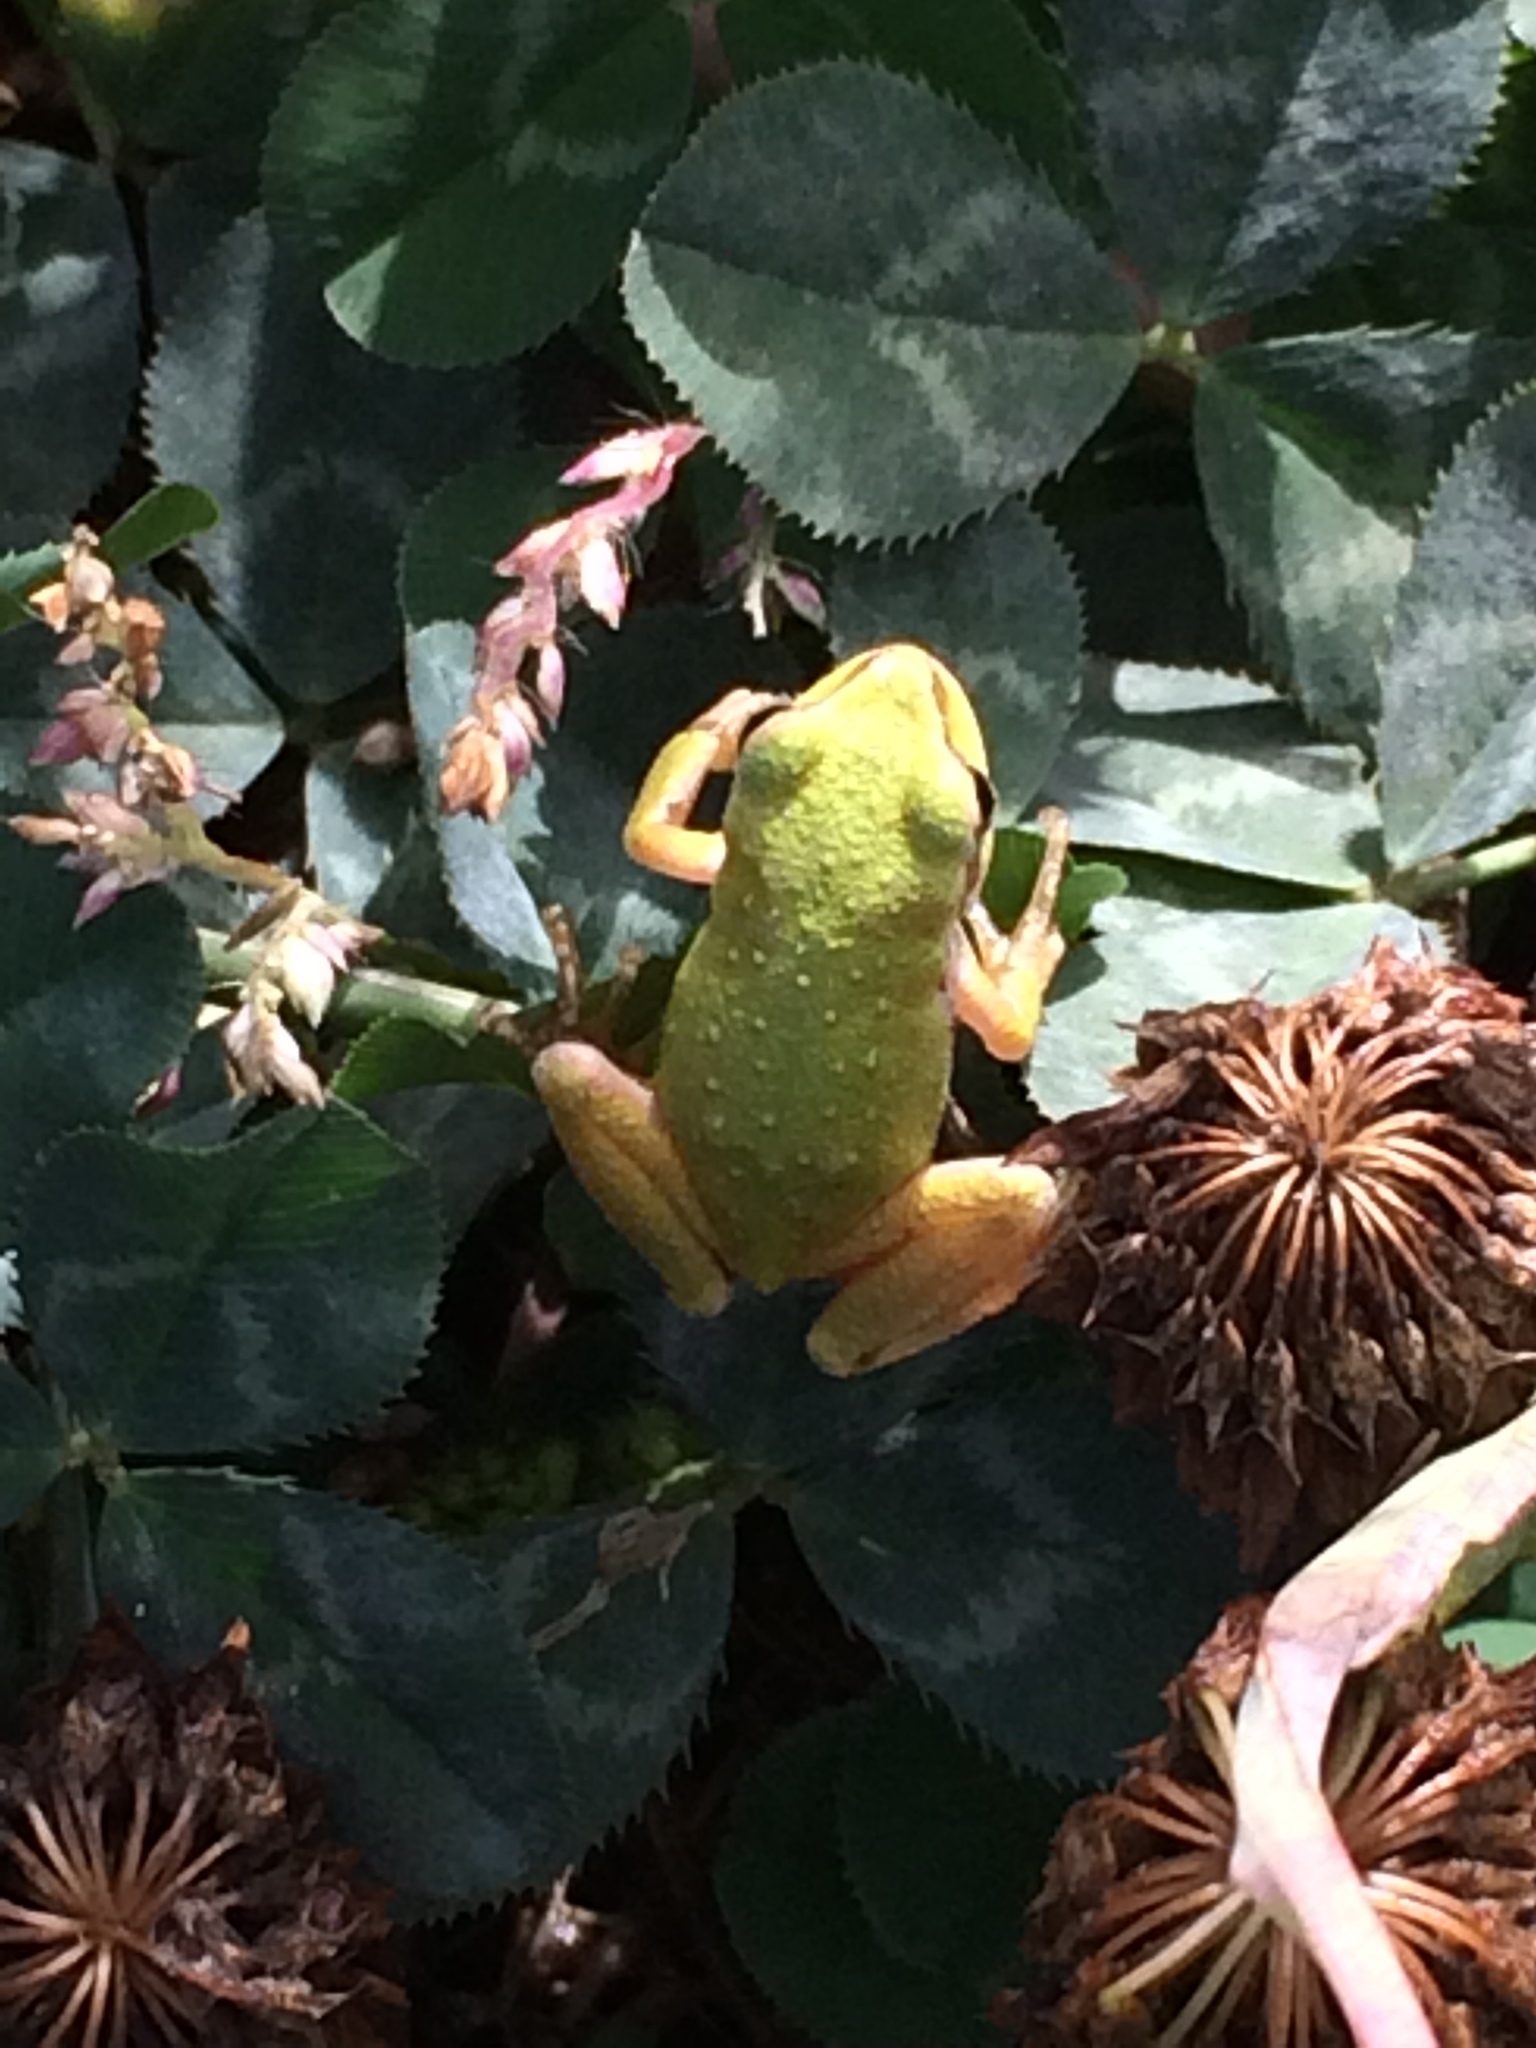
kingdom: Animalia
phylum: Chordata
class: Amphibia
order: Anura
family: Hylidae
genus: Pseudacris
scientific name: Pseudacris regilla
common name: Pacific chorus frog
